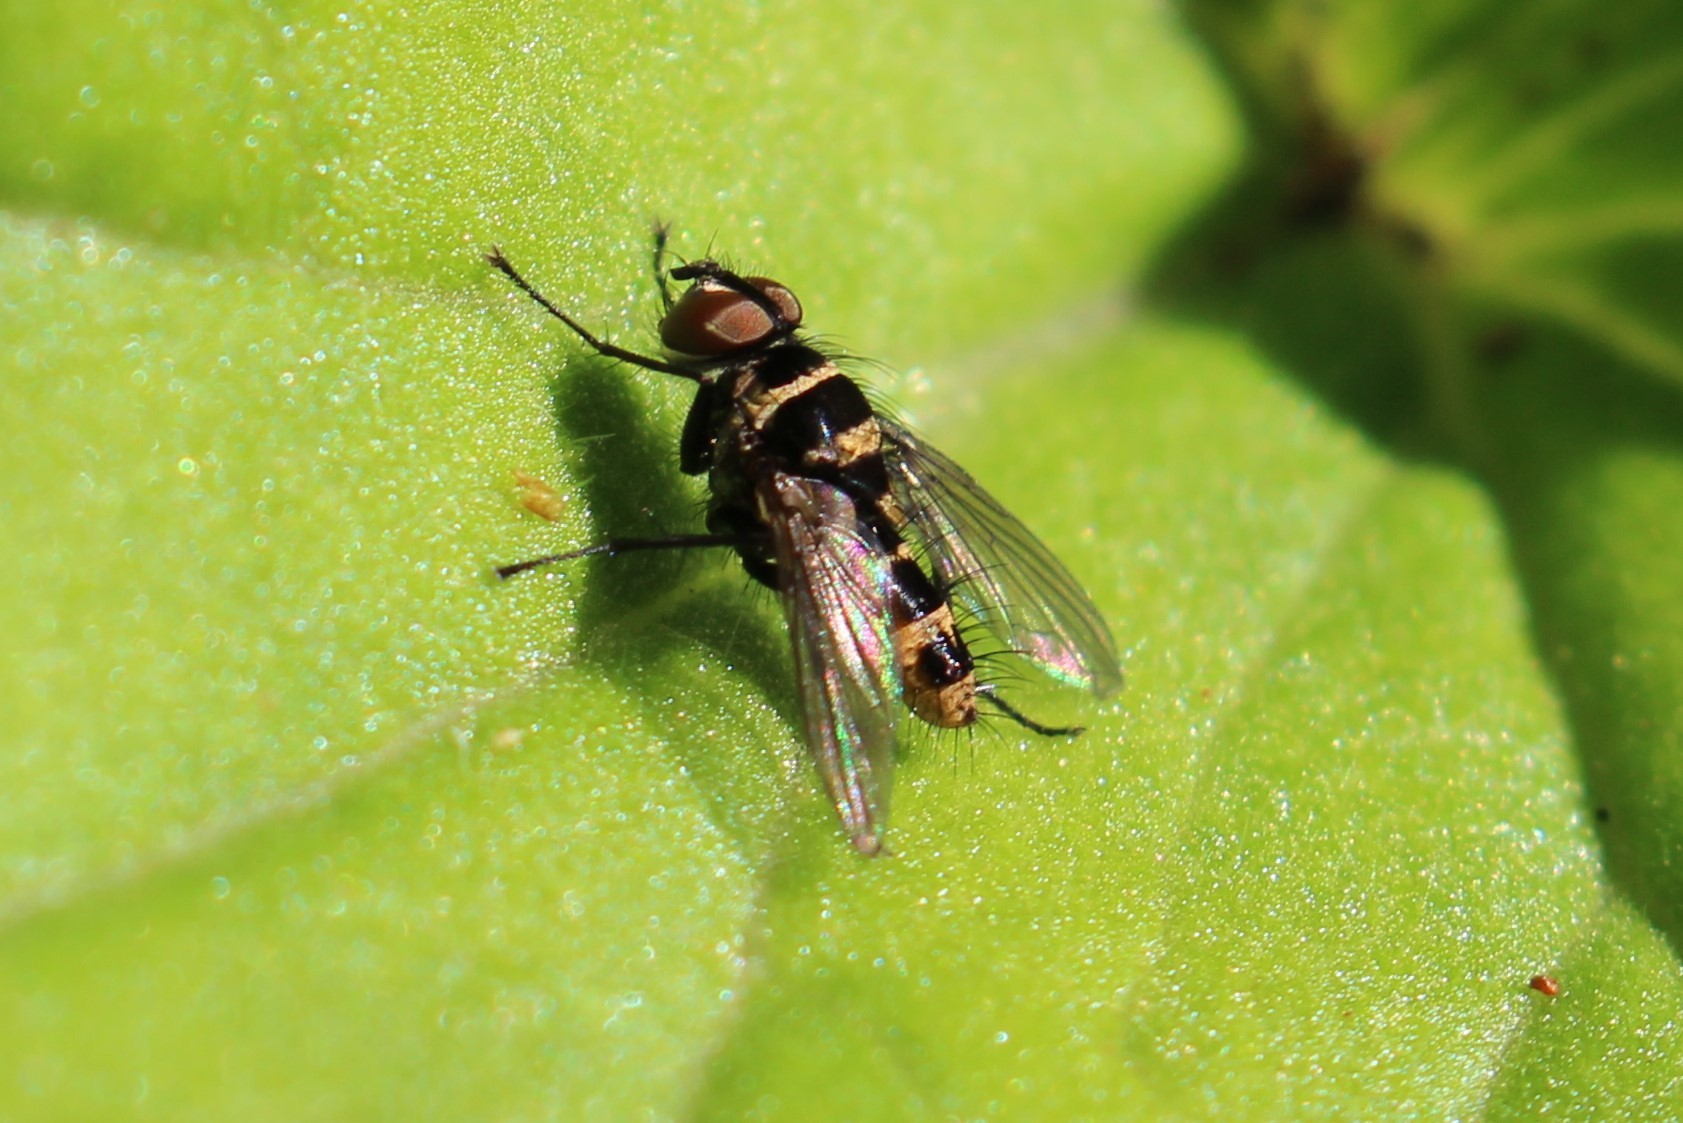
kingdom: Animalia
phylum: Arthropoda
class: Insecta
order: Diptera
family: Tachinidae
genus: Trigonospila
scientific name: Trigonospila brevifacies
